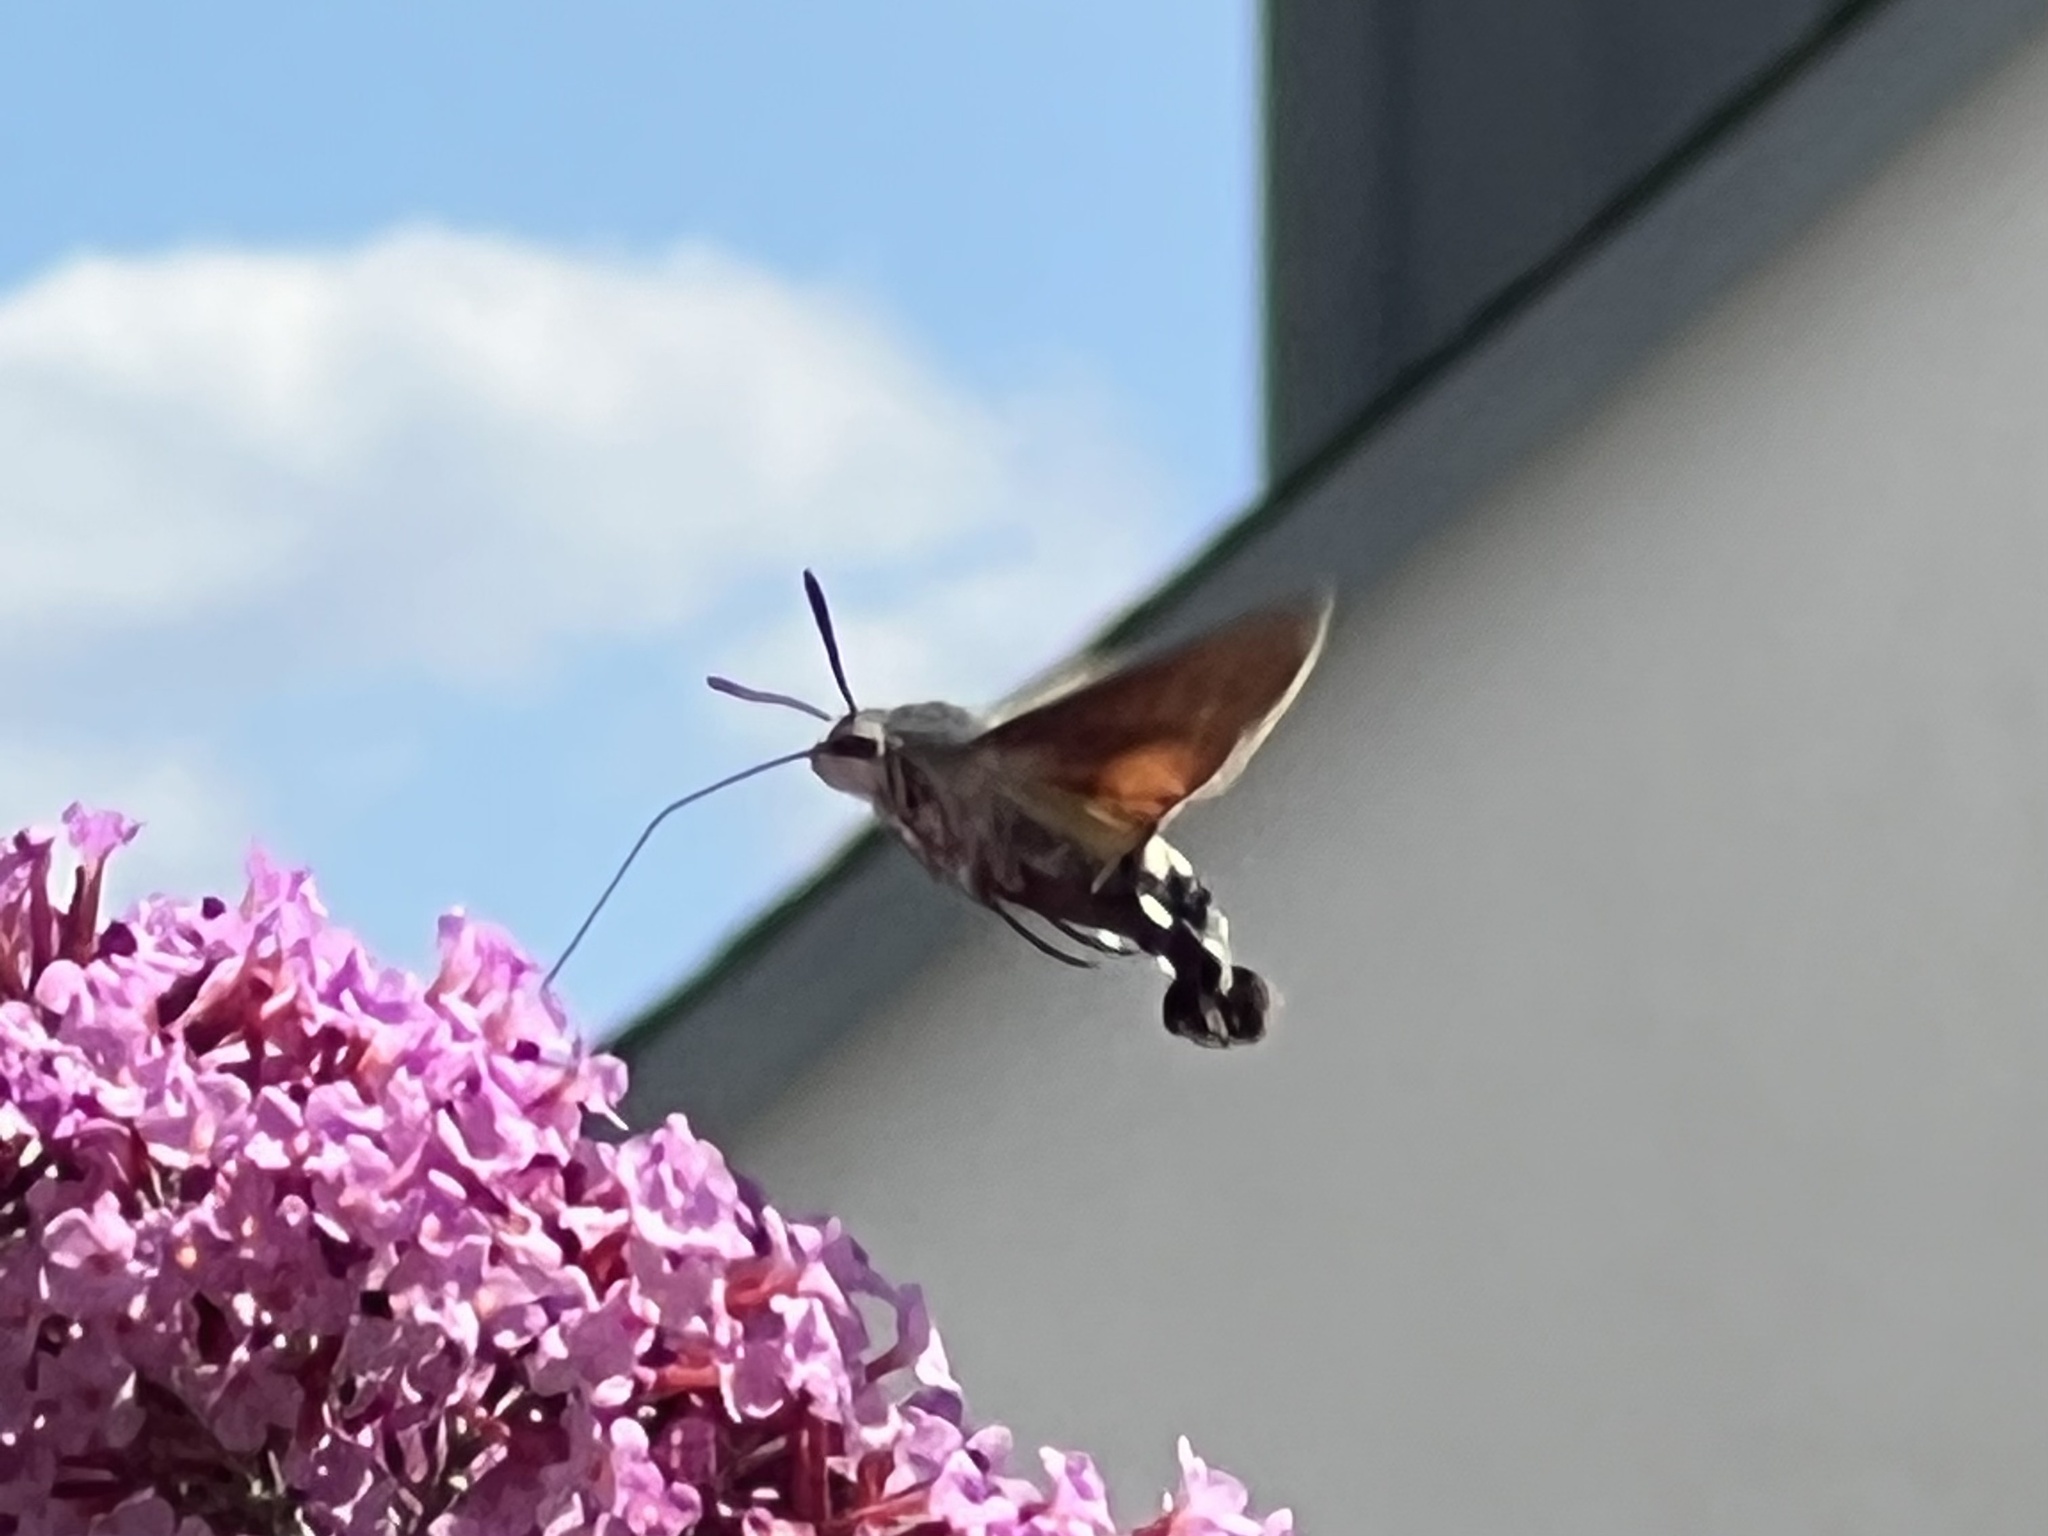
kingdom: Animalia
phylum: Arthropoda
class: Insecta
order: Lepidoptera
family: Sphingidae
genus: Macroglossum
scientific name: Macroglossum stellatarum
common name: Humming-bird hawk-moth
